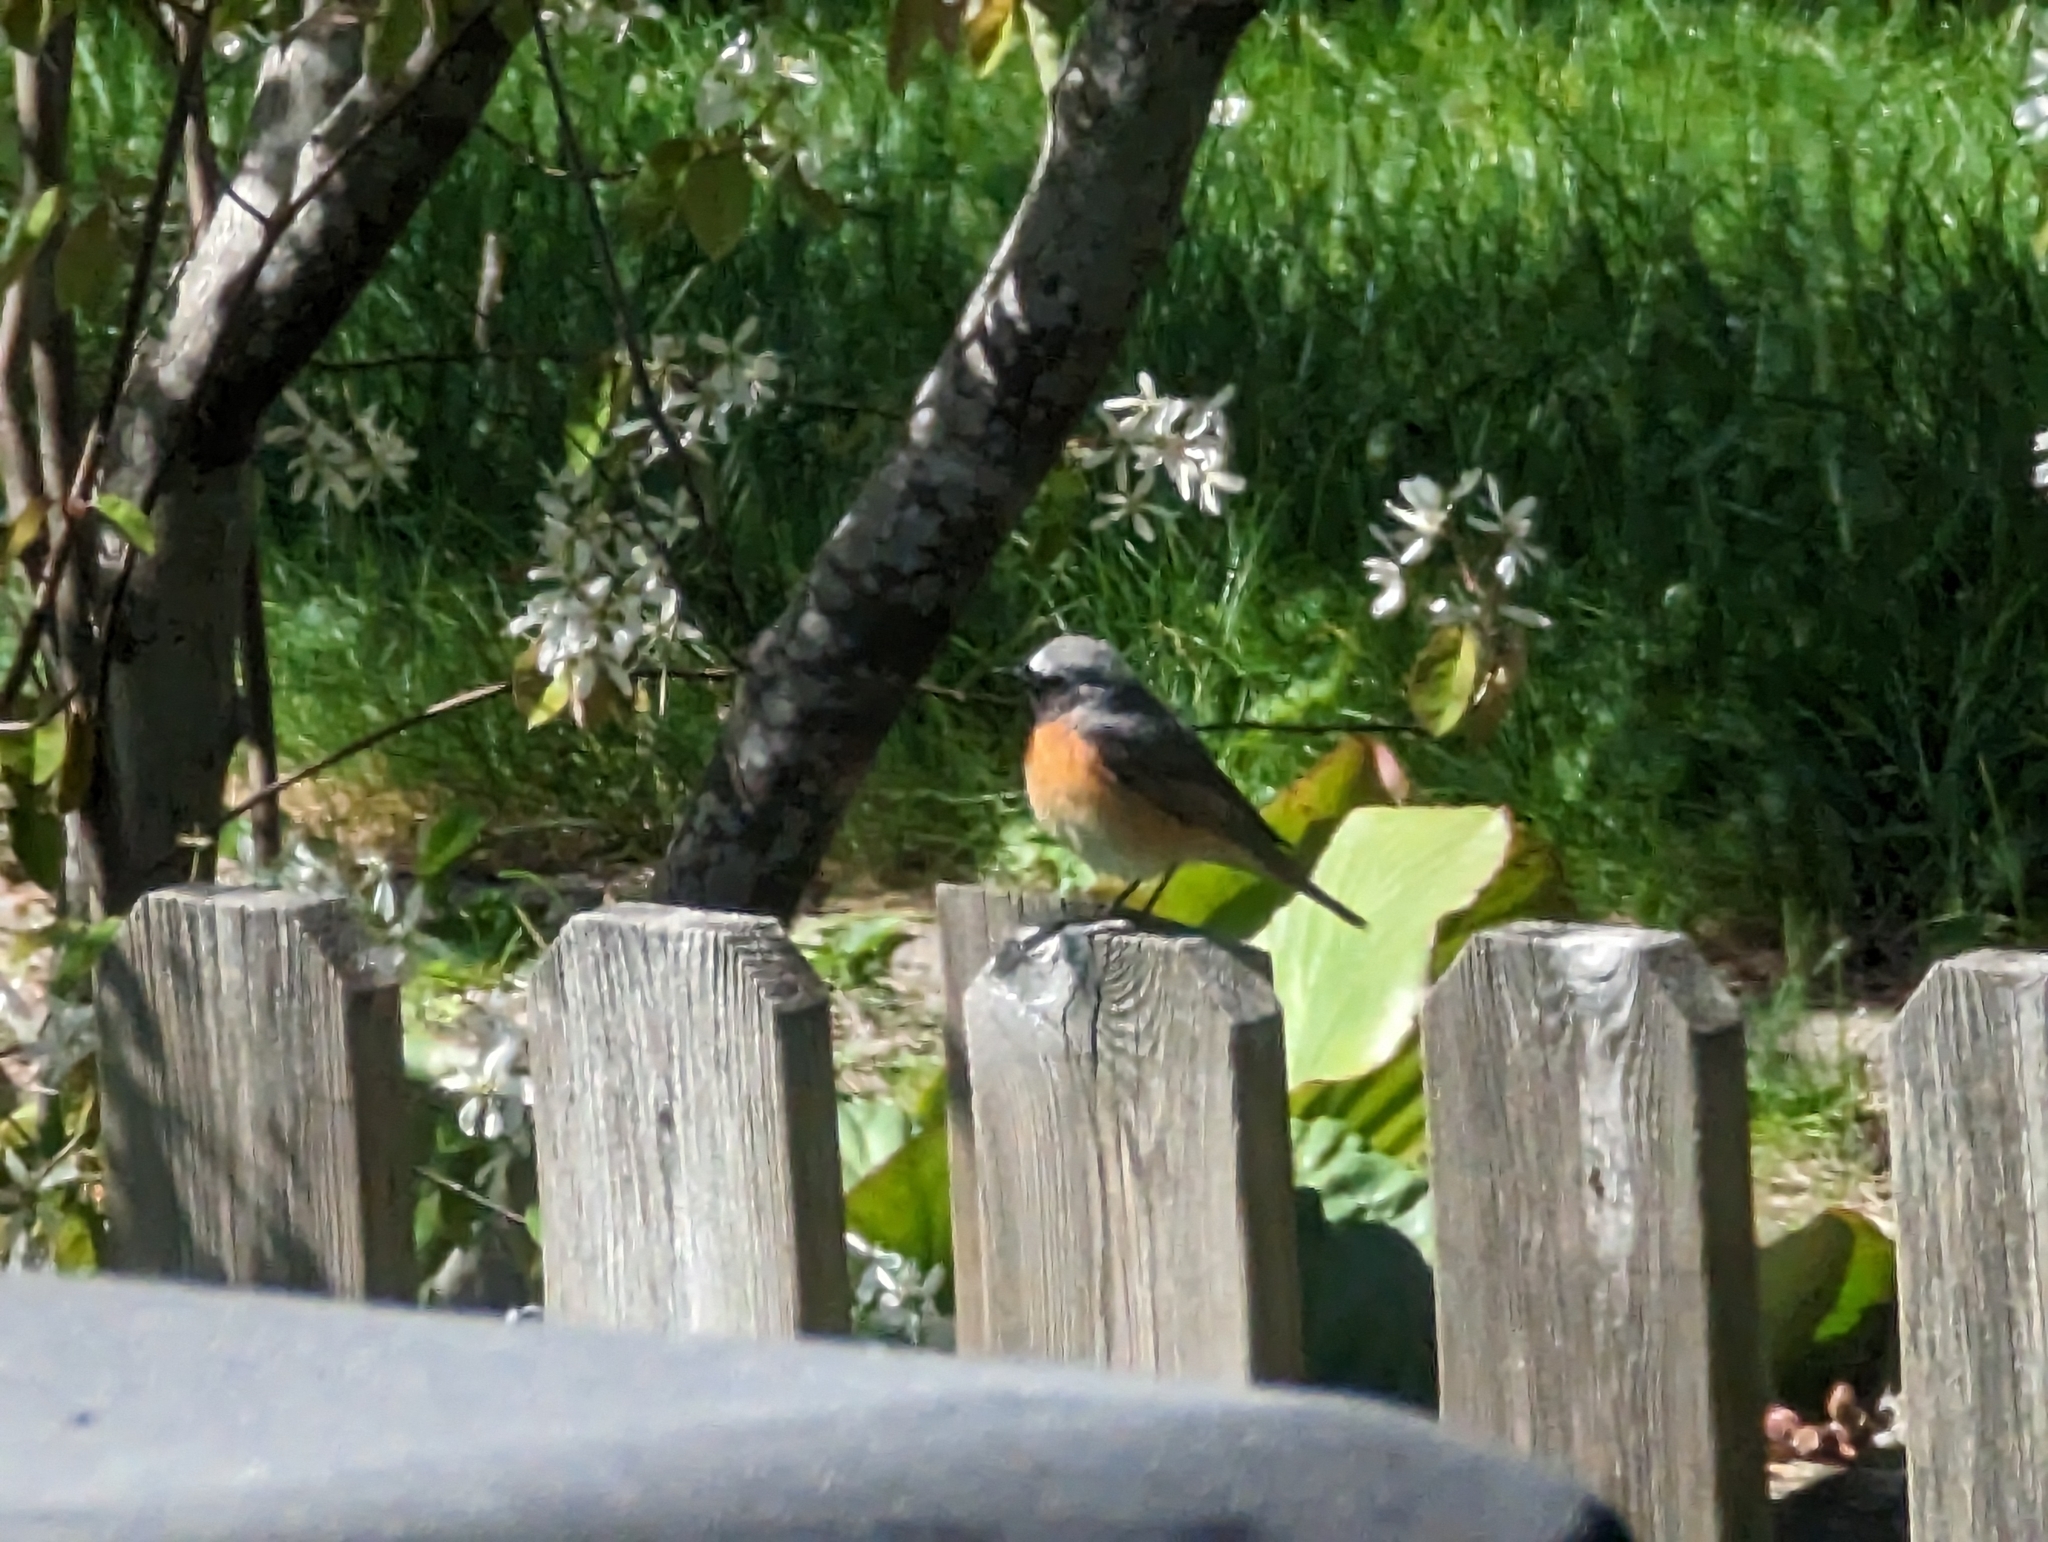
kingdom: Animalia
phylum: Chordata
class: Aves
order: Passeriformes
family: Muscicapidae
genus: Phoenicurus
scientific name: Phoenicurus phoenicurus
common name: Common redstart
